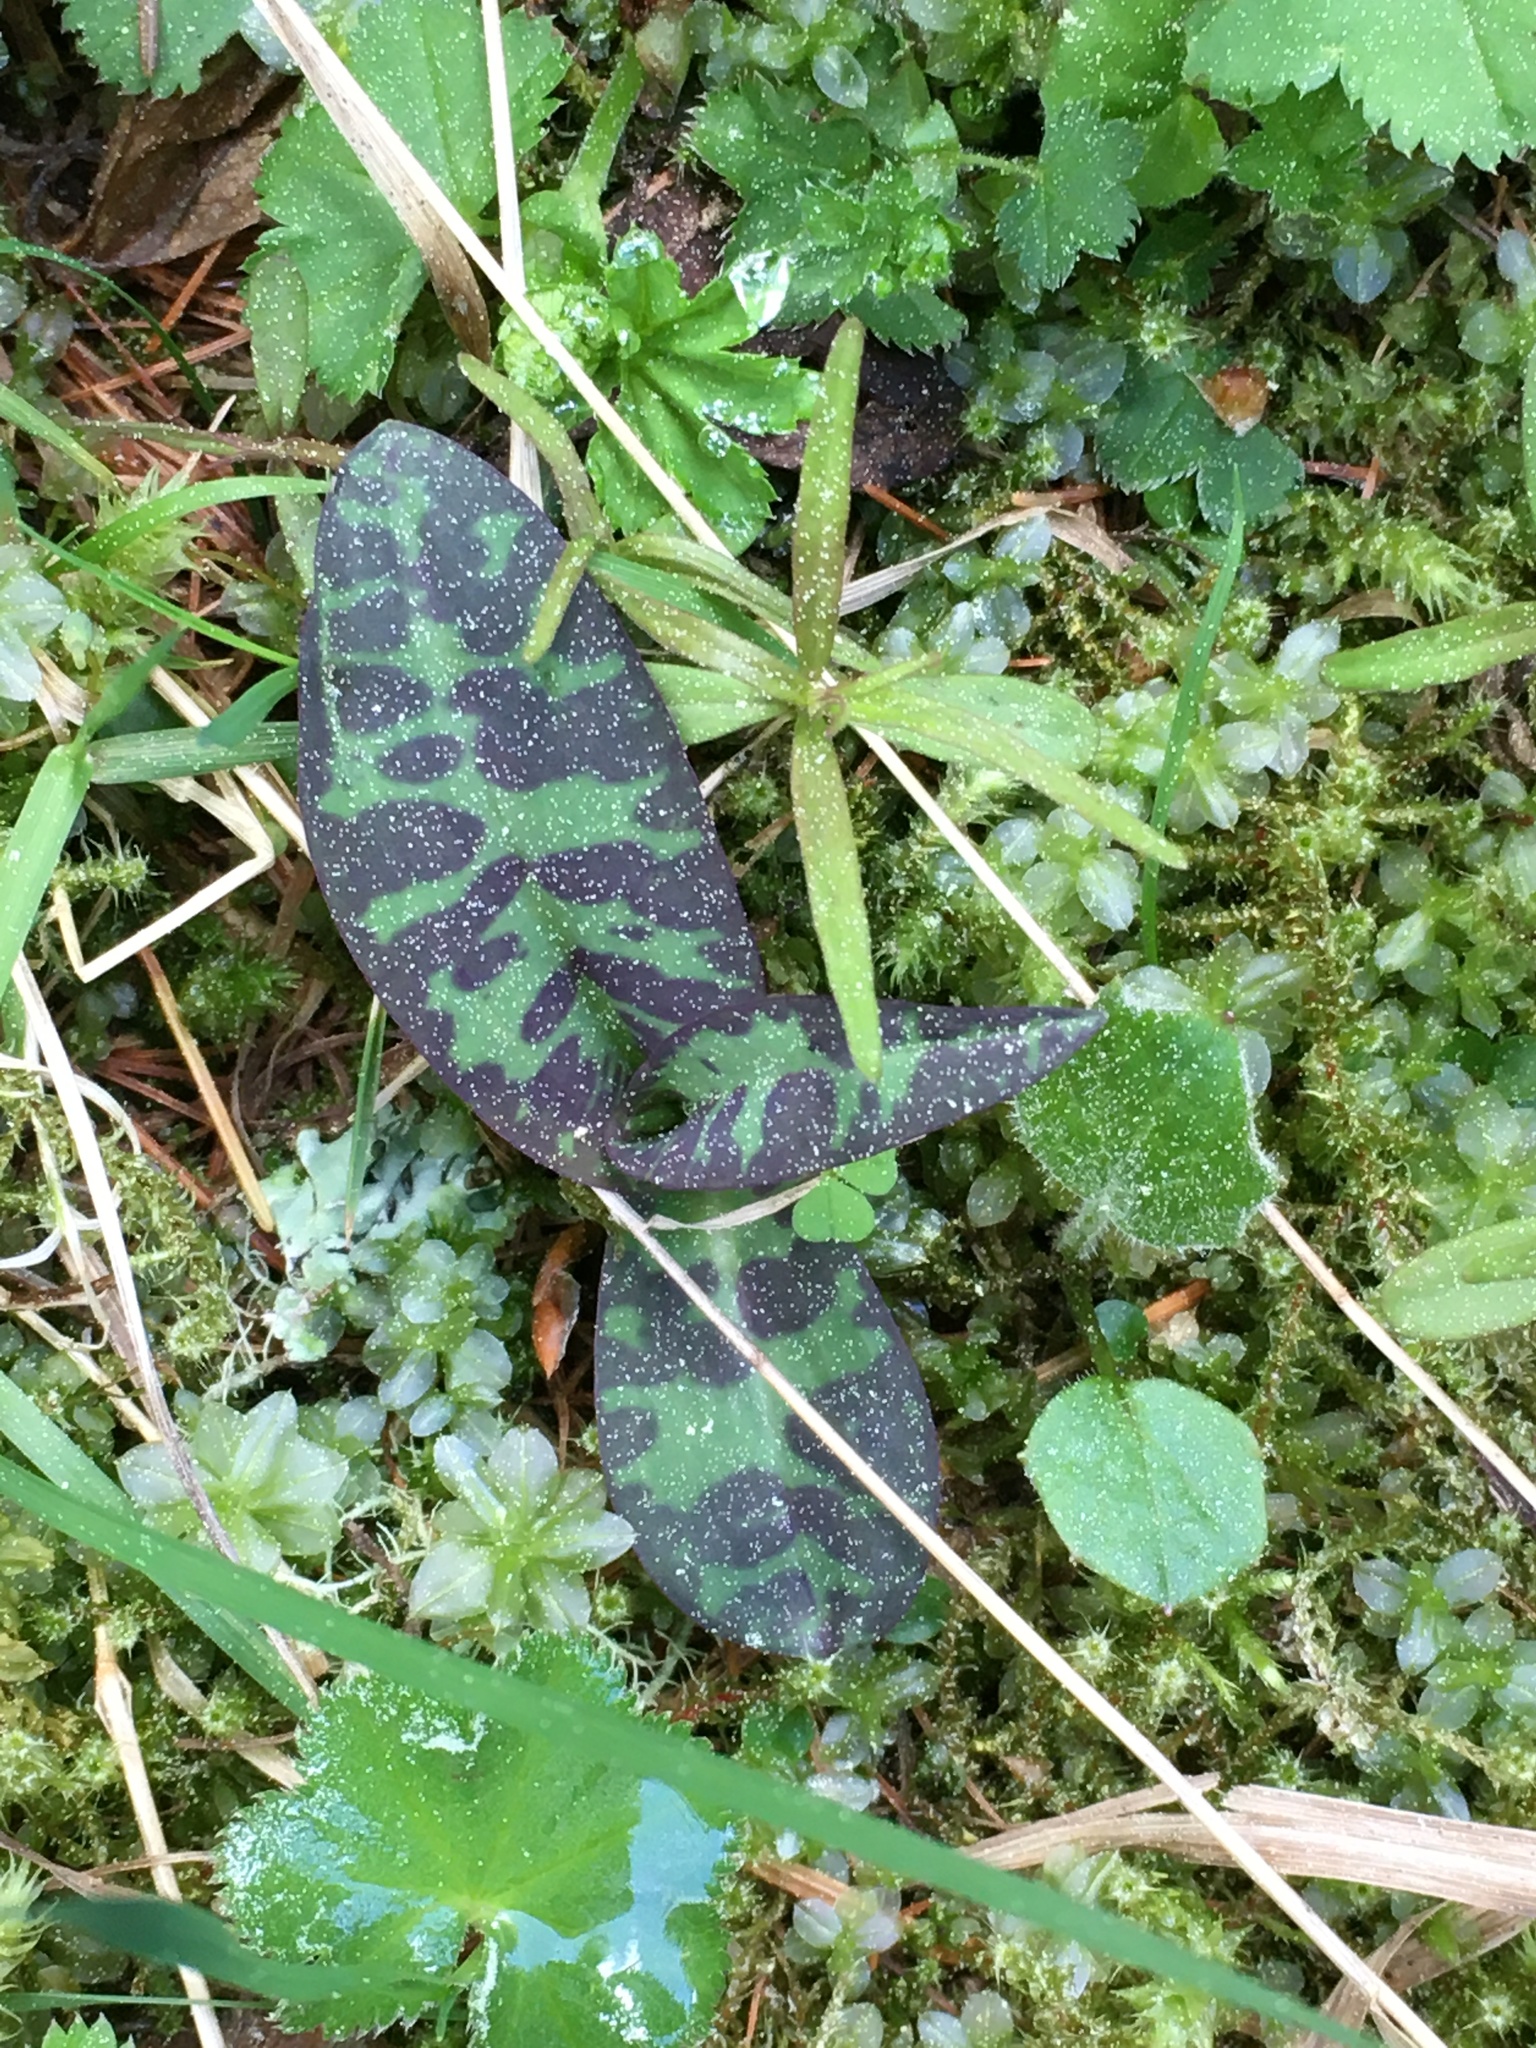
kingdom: Plantae
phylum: Tracheophyta
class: Liliopsida
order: Asparagales
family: Orchidaceae
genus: Dactylorhiza
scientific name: Dactylorhiza maculata
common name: Heath spotted-orchid
